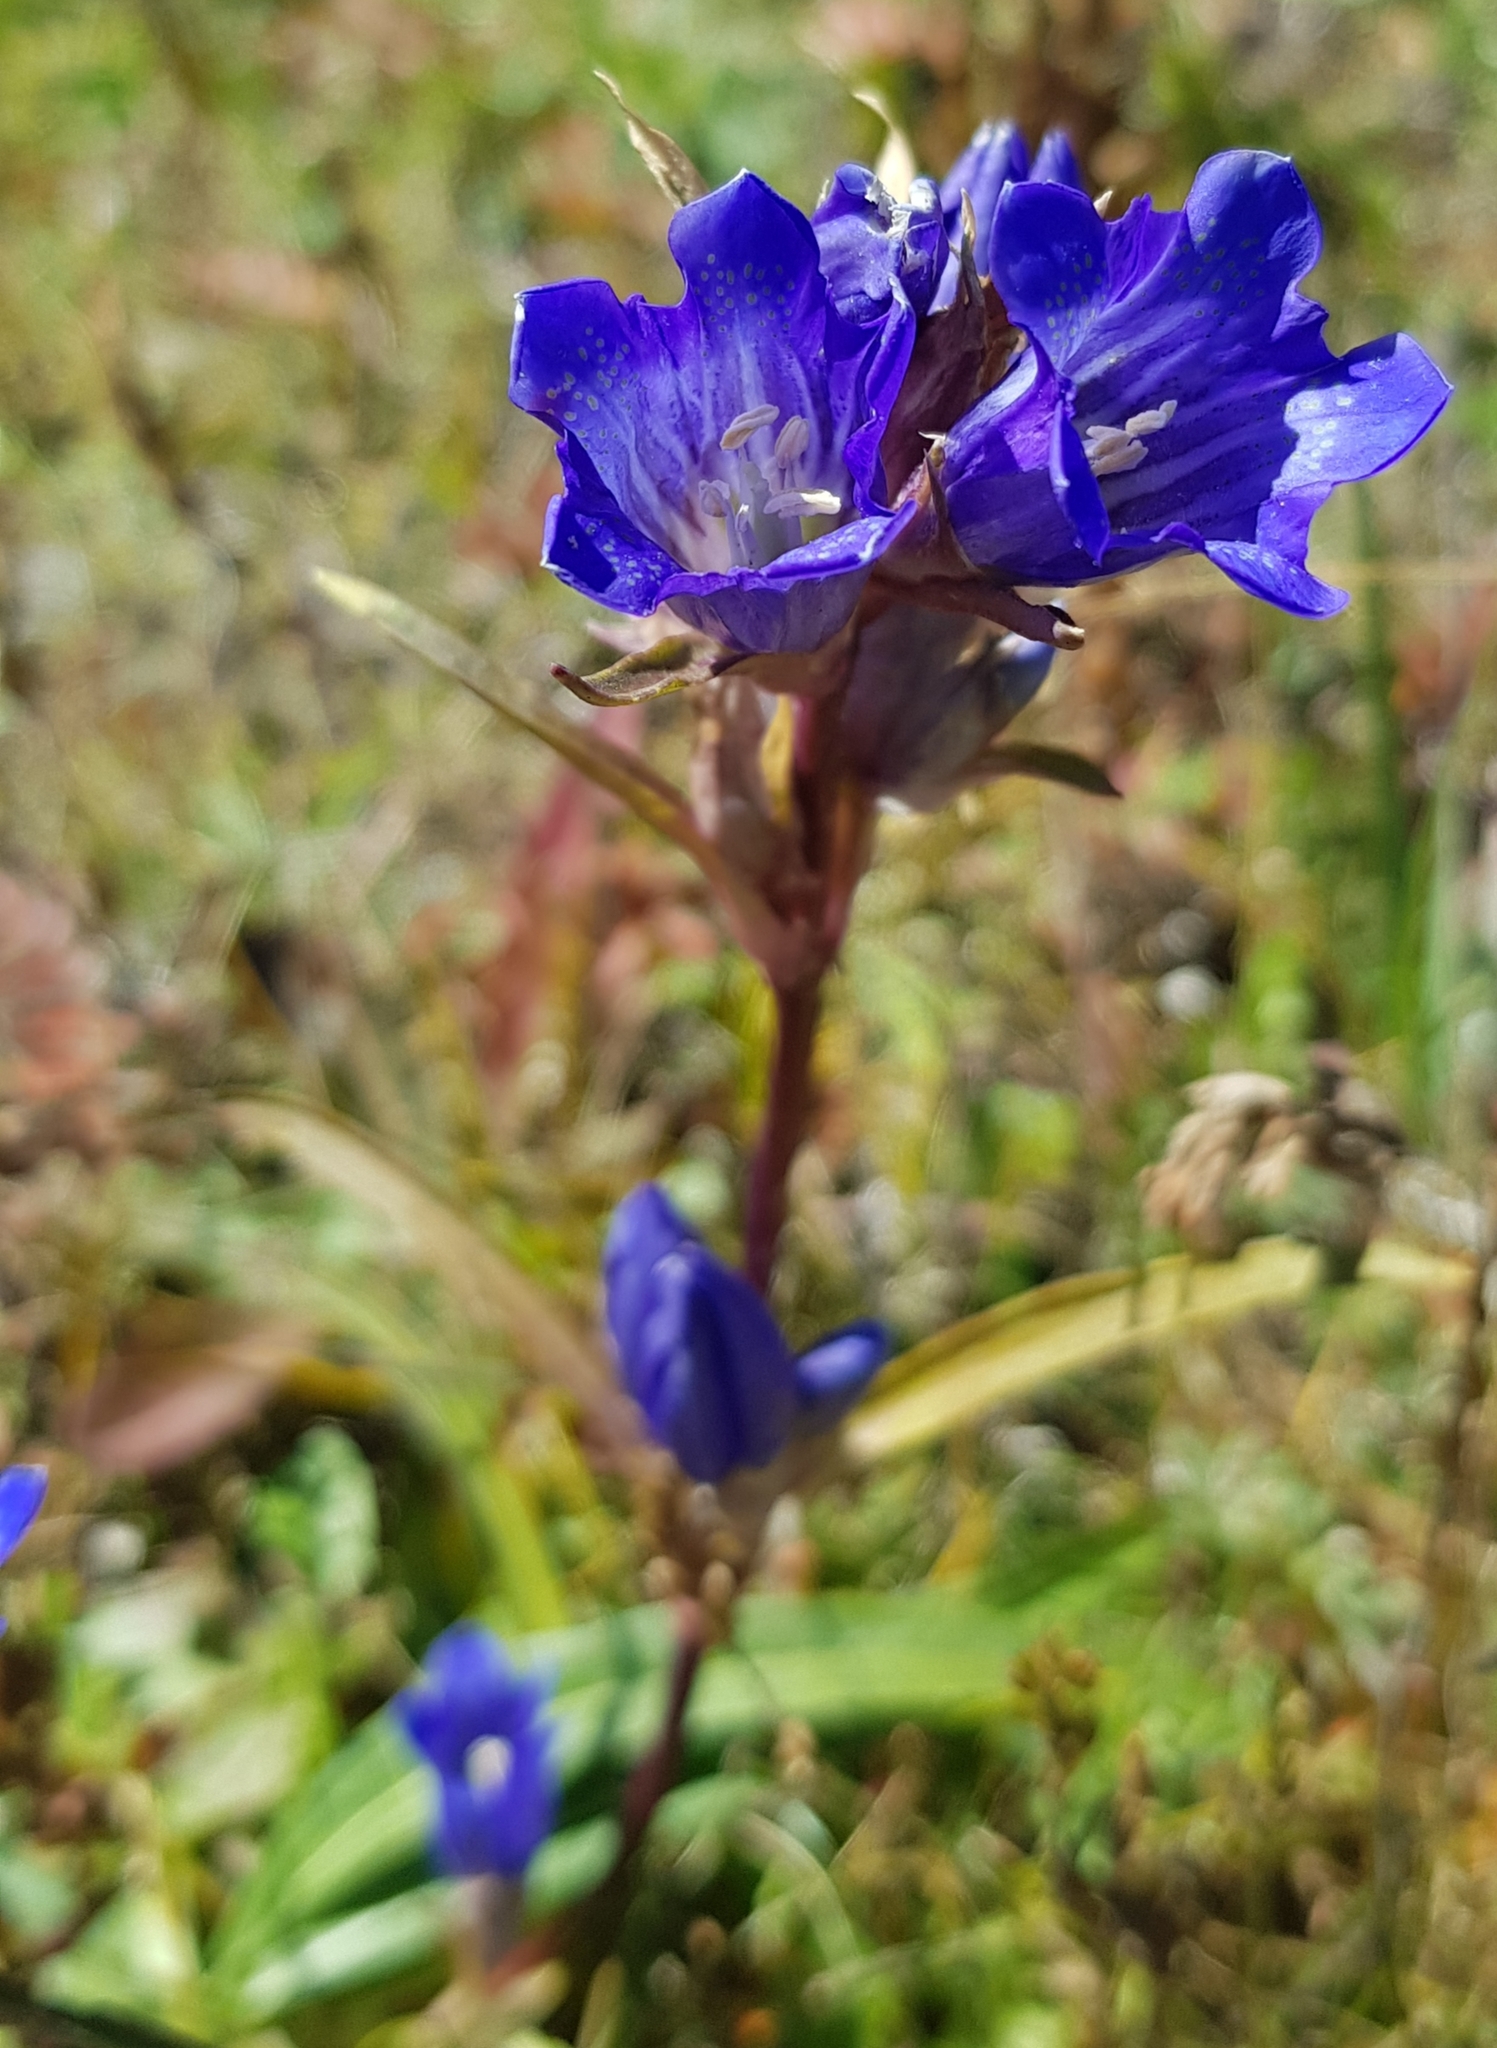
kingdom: Plantae
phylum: Tracheophyta
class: Magnoliopsida
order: Gentianales
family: Gentianaceae
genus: Gentiana
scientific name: Gentiana decumbens
